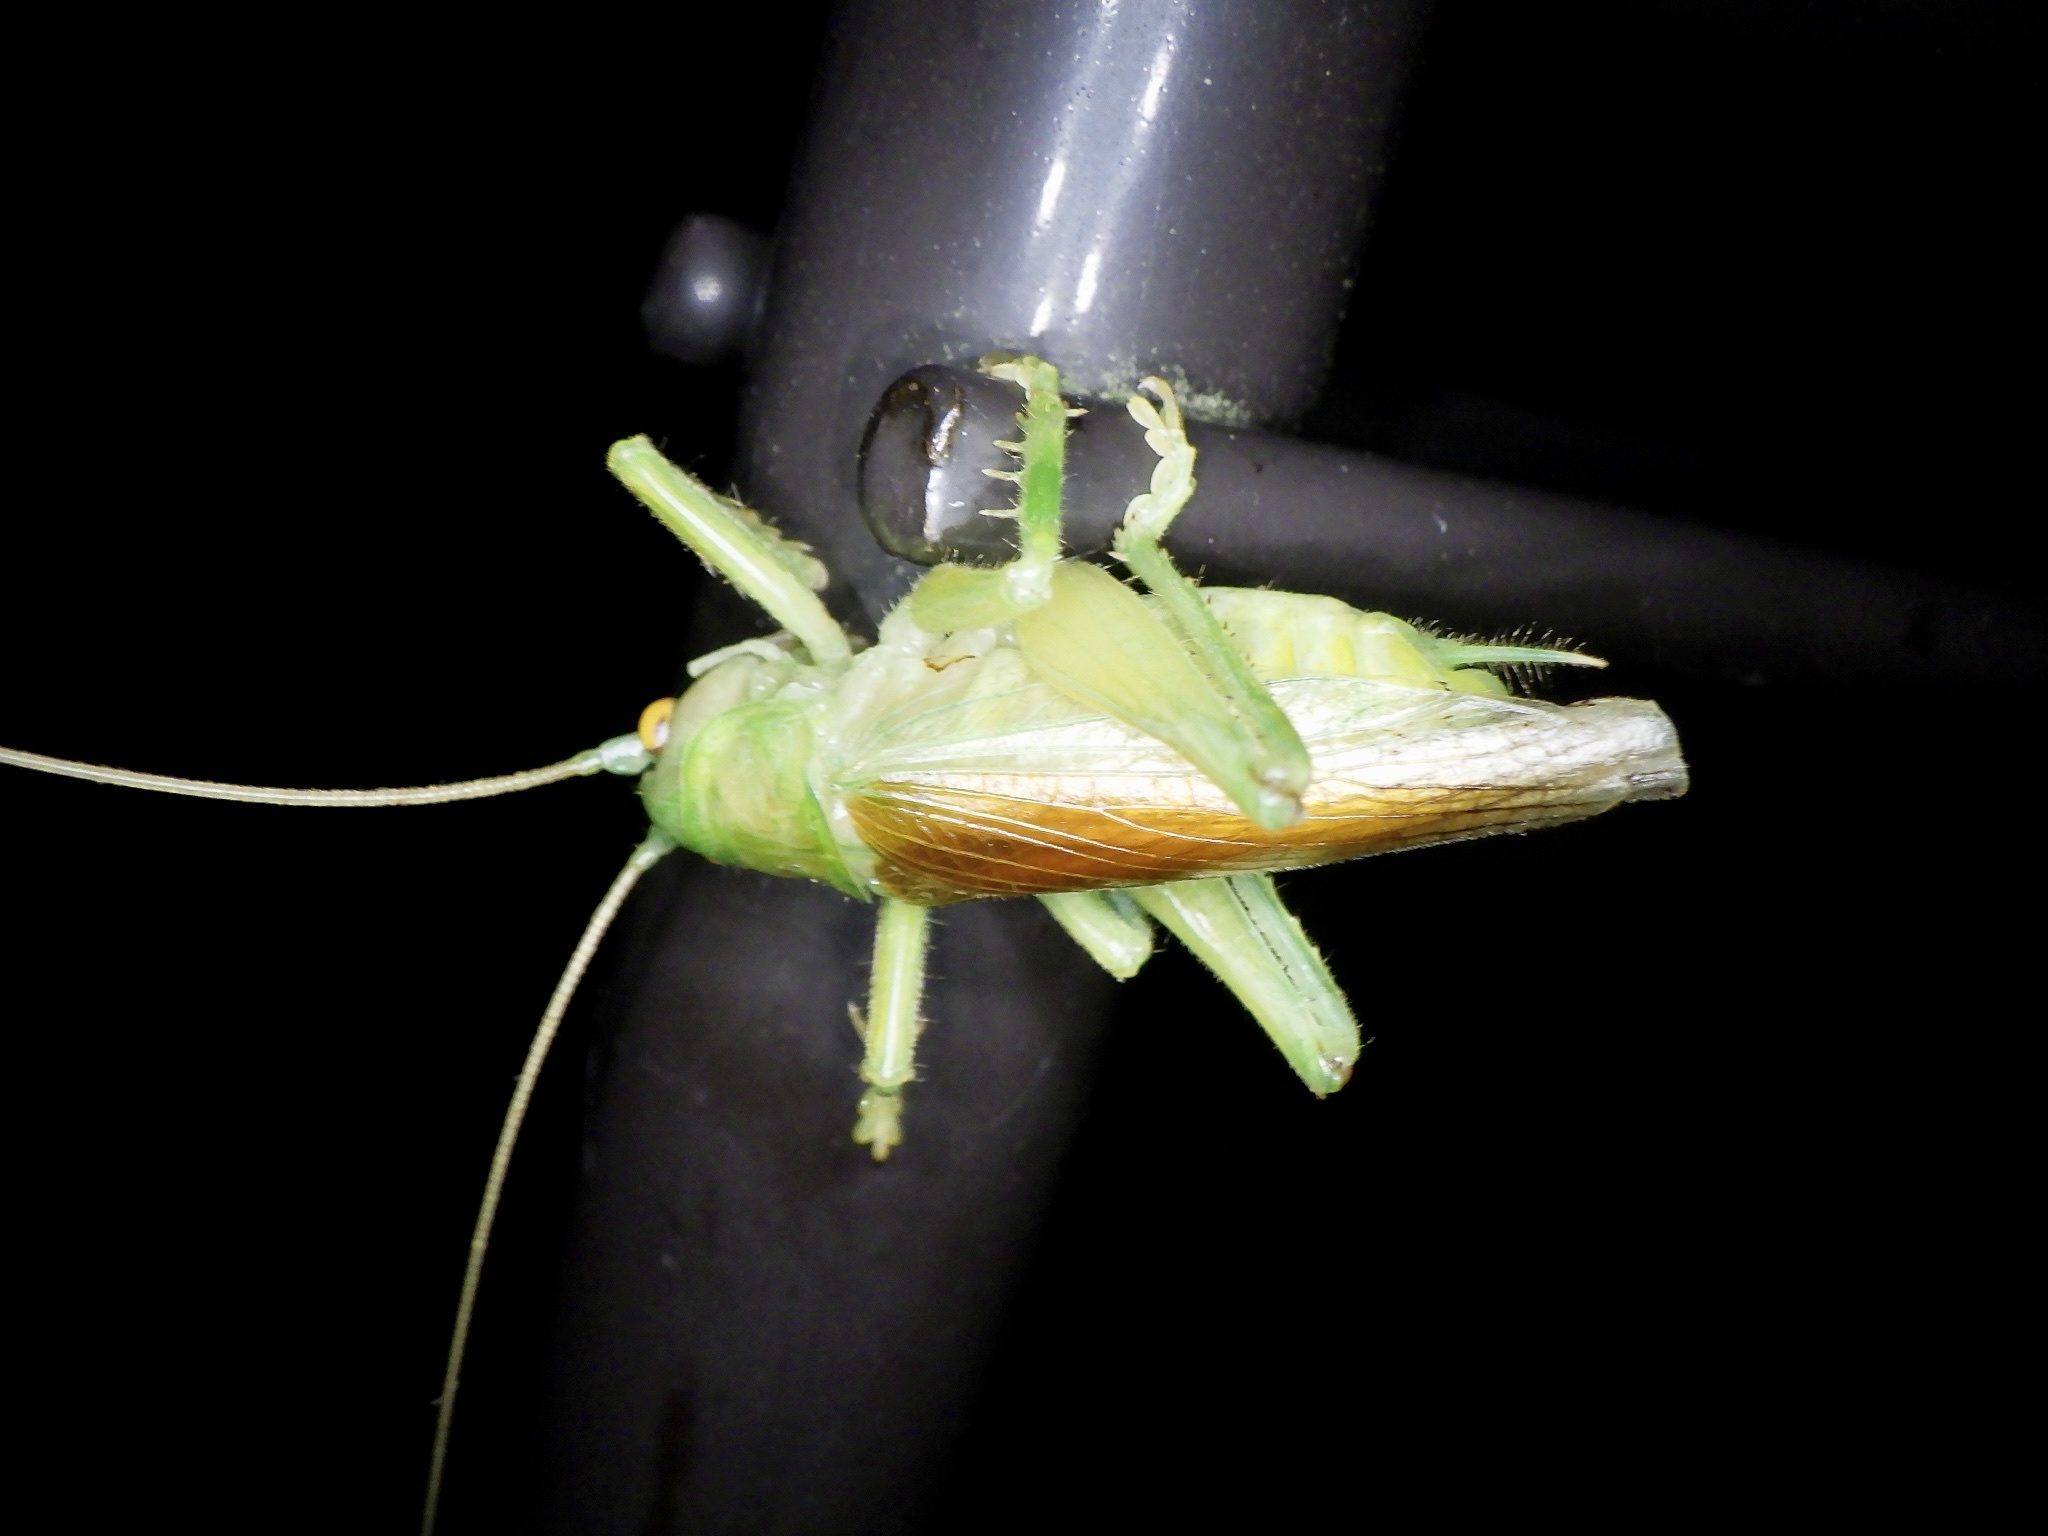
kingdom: Animalia
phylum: Arthropoda
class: Insecta
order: Orthoptera
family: Gryllacrididae
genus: Eugryllacris
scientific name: Eugryllacris japonica
